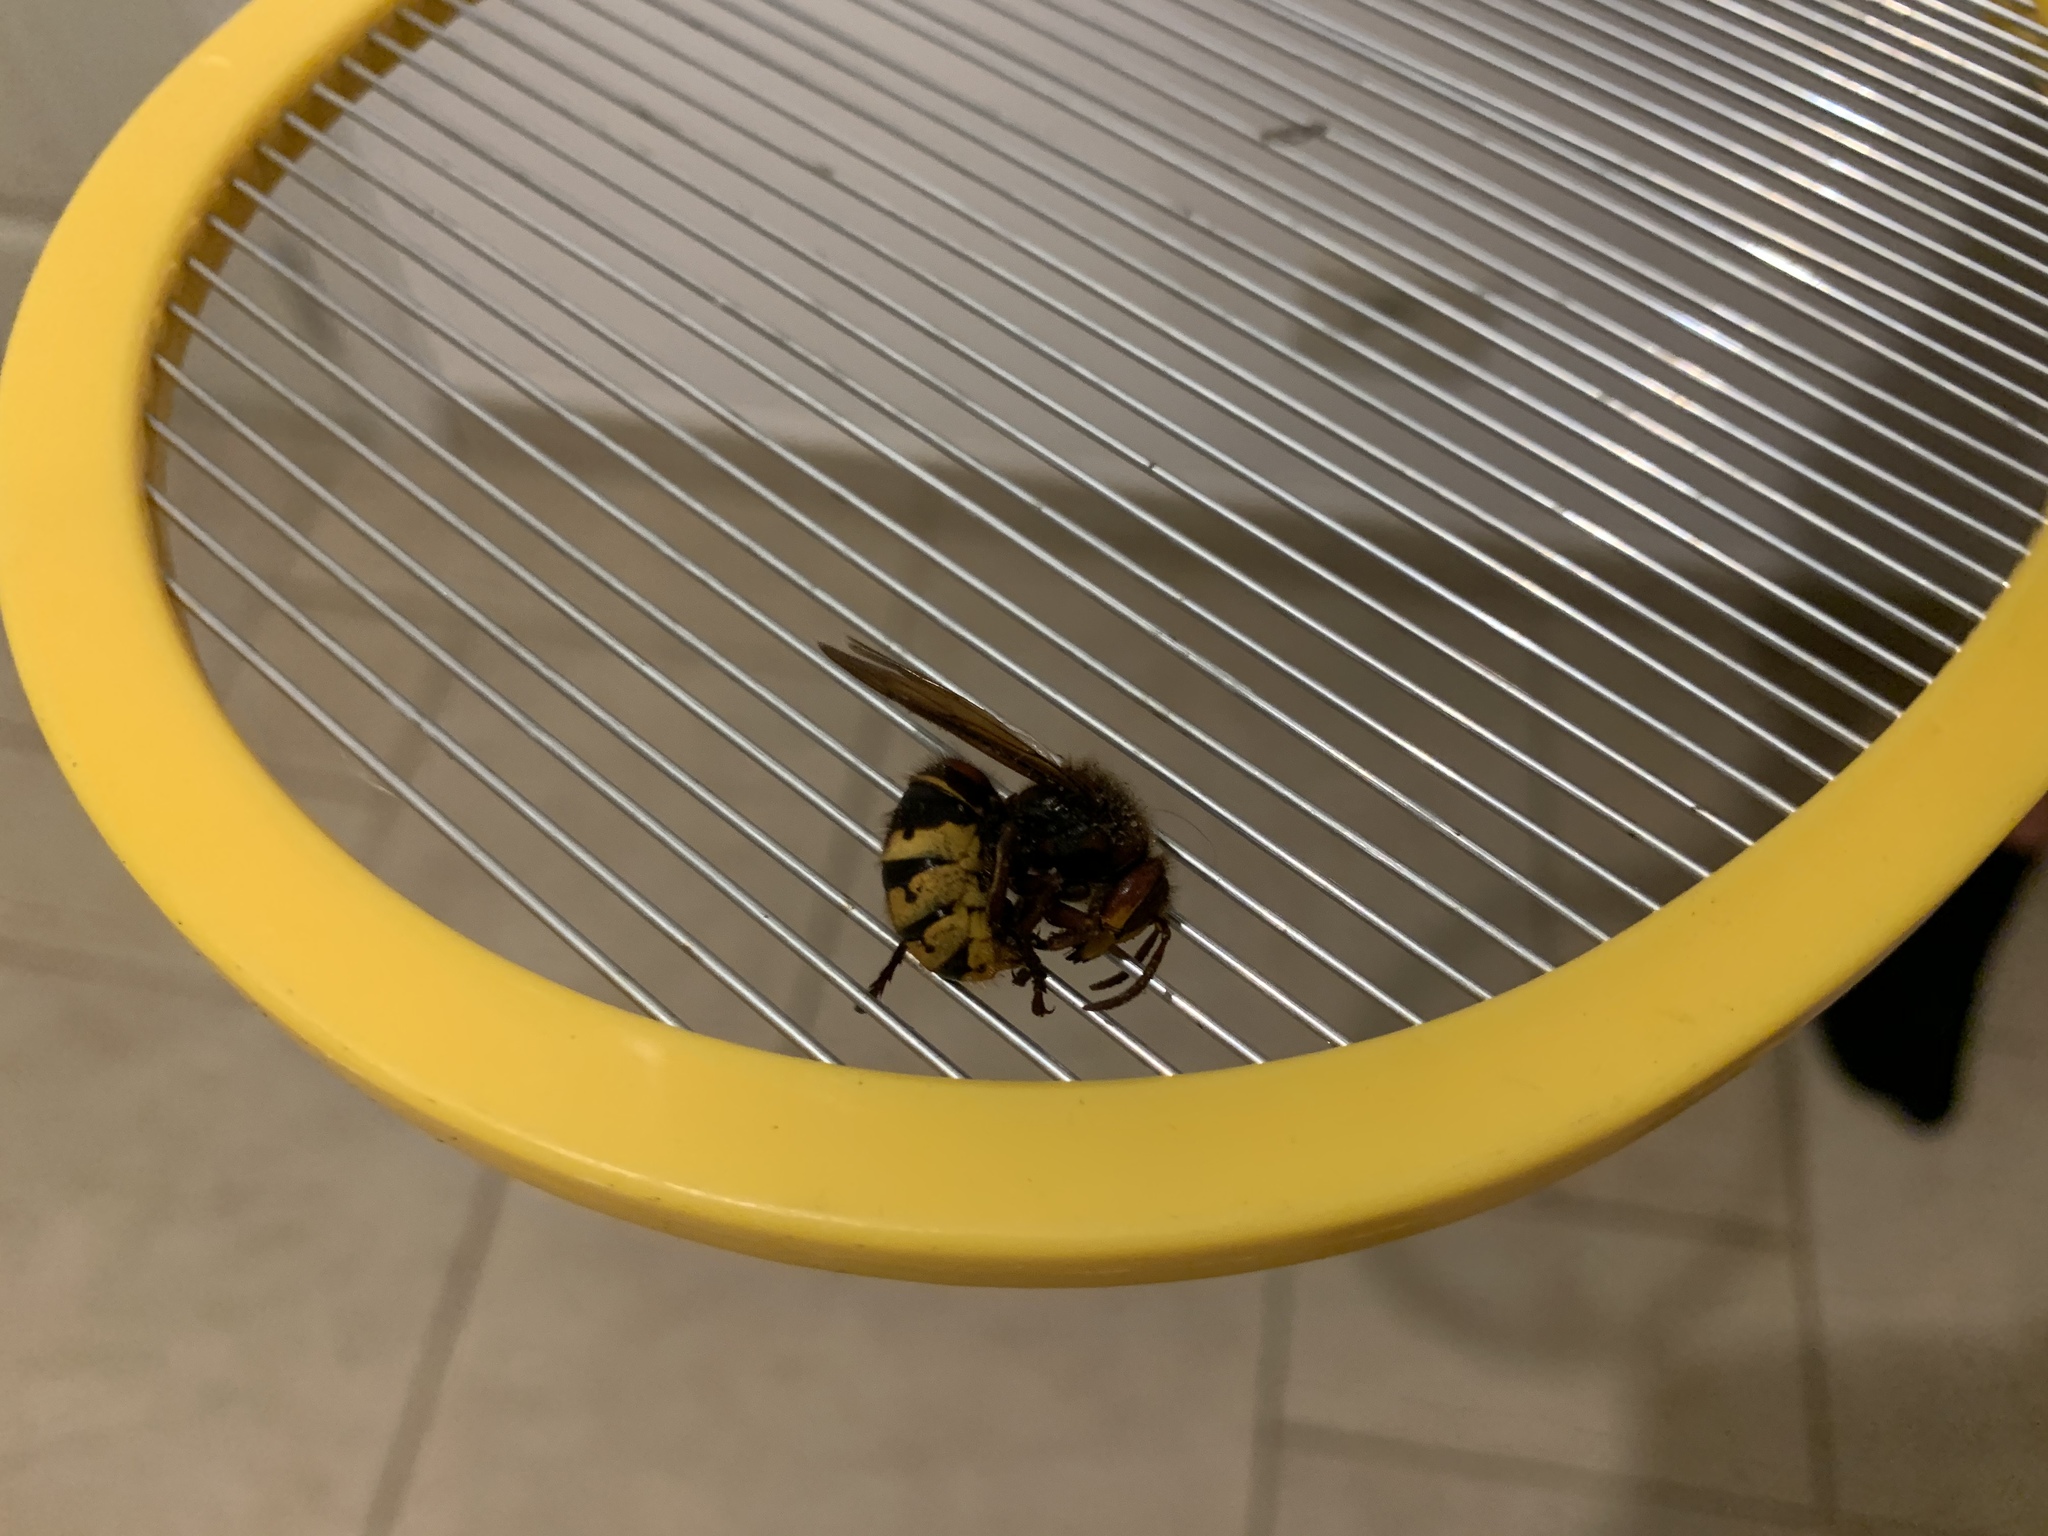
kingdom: Animalia
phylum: Arthropoda
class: Insecta
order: Hymenoptera
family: Vespidae
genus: Vespa
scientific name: Vespa crabro
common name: Hornet
